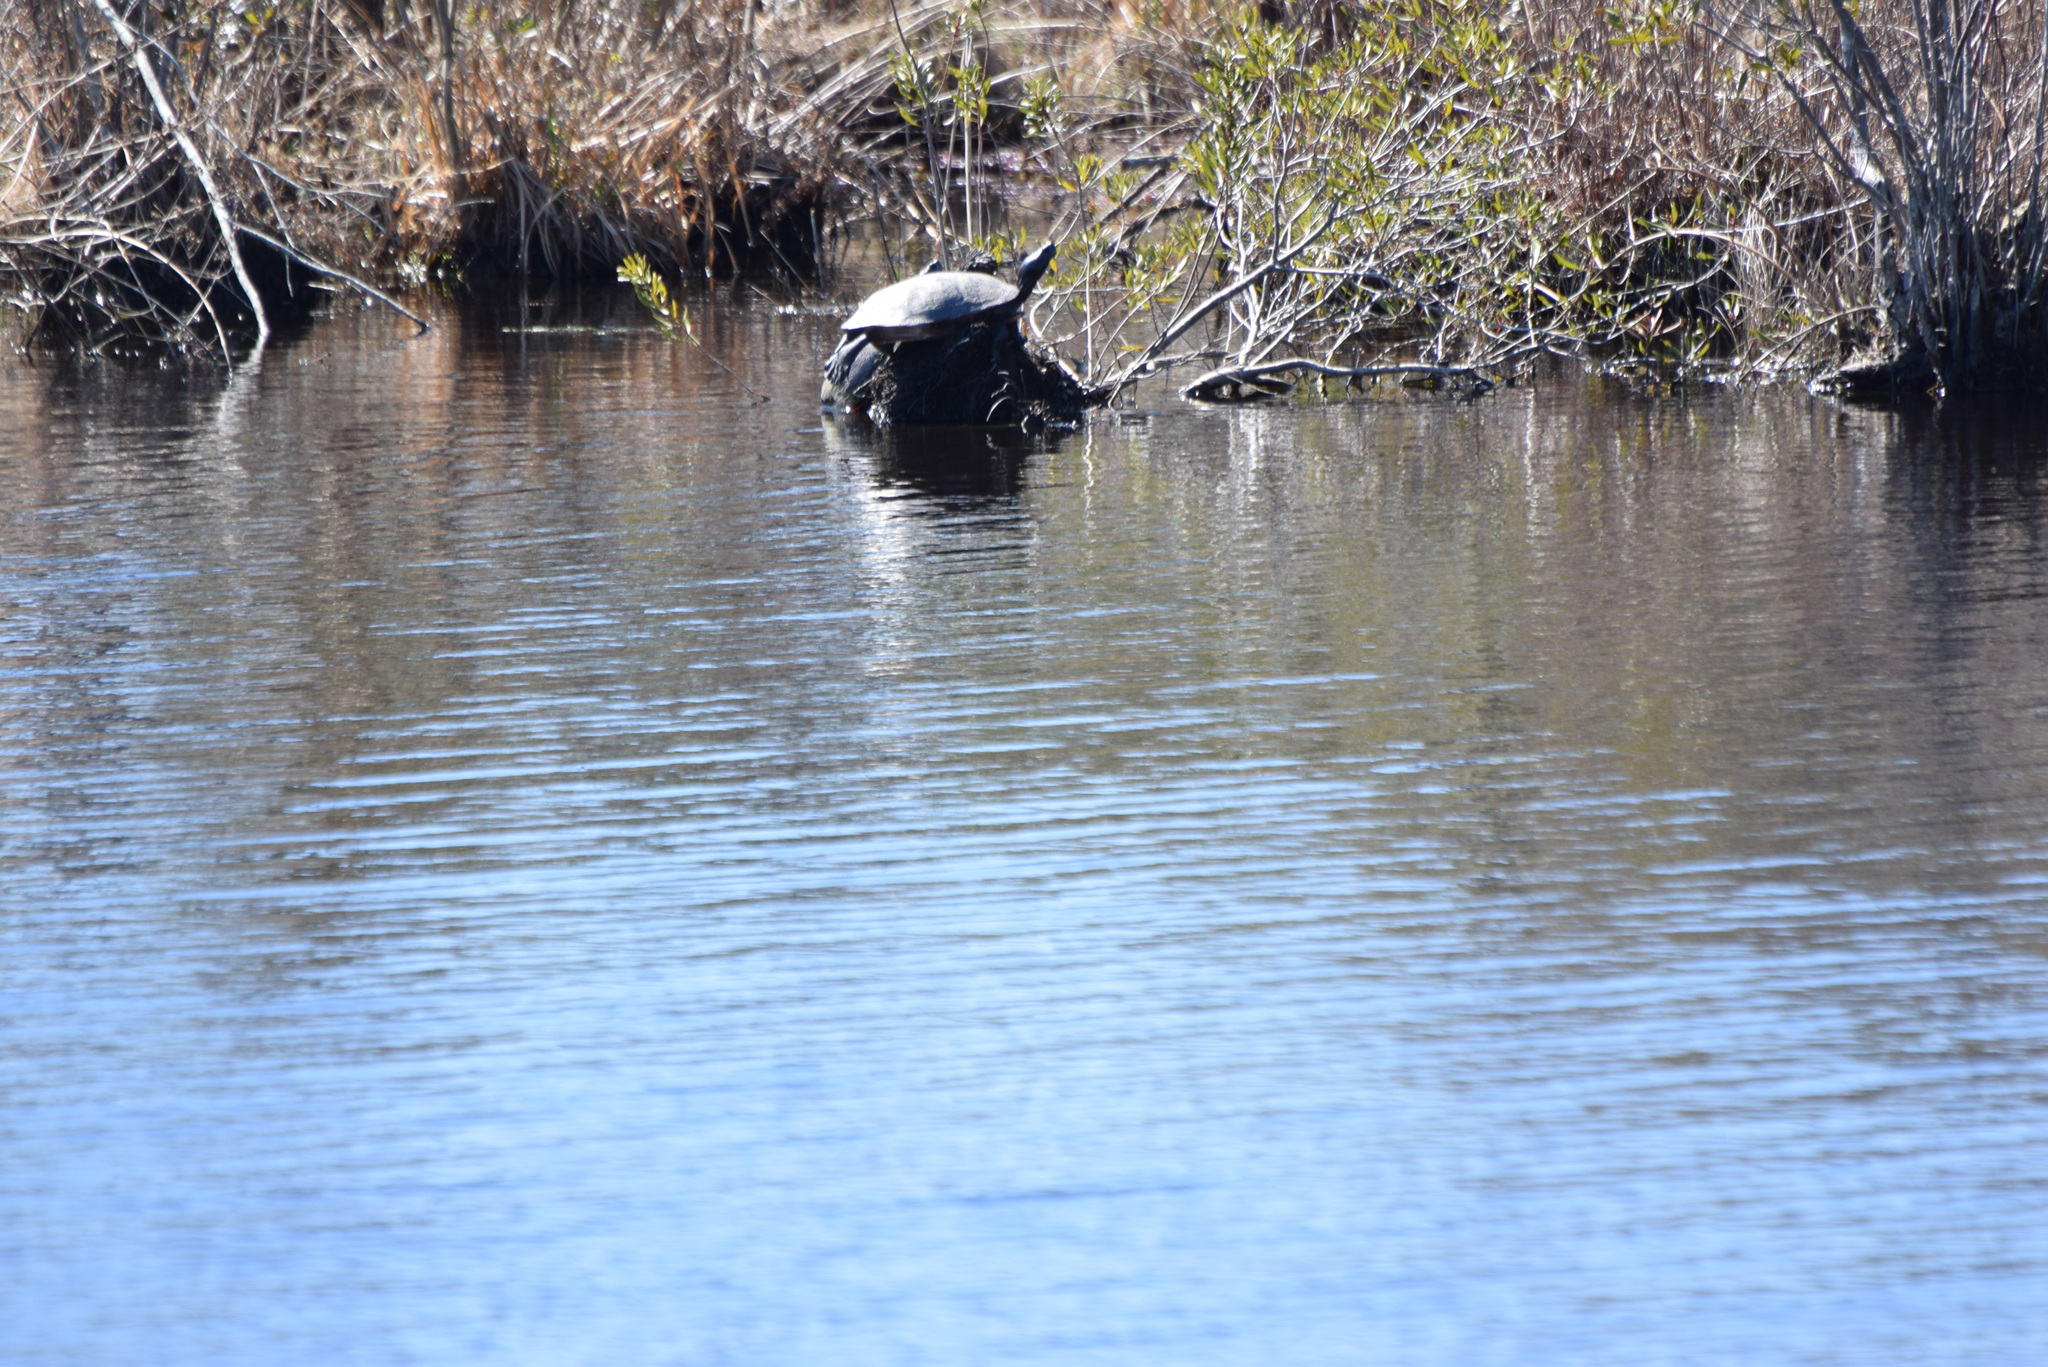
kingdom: Animalia
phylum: Chordata
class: Testudines
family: Emydidae
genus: Pseudemys
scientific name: Pseudemys rubriventris
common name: American red-bellied turtle
